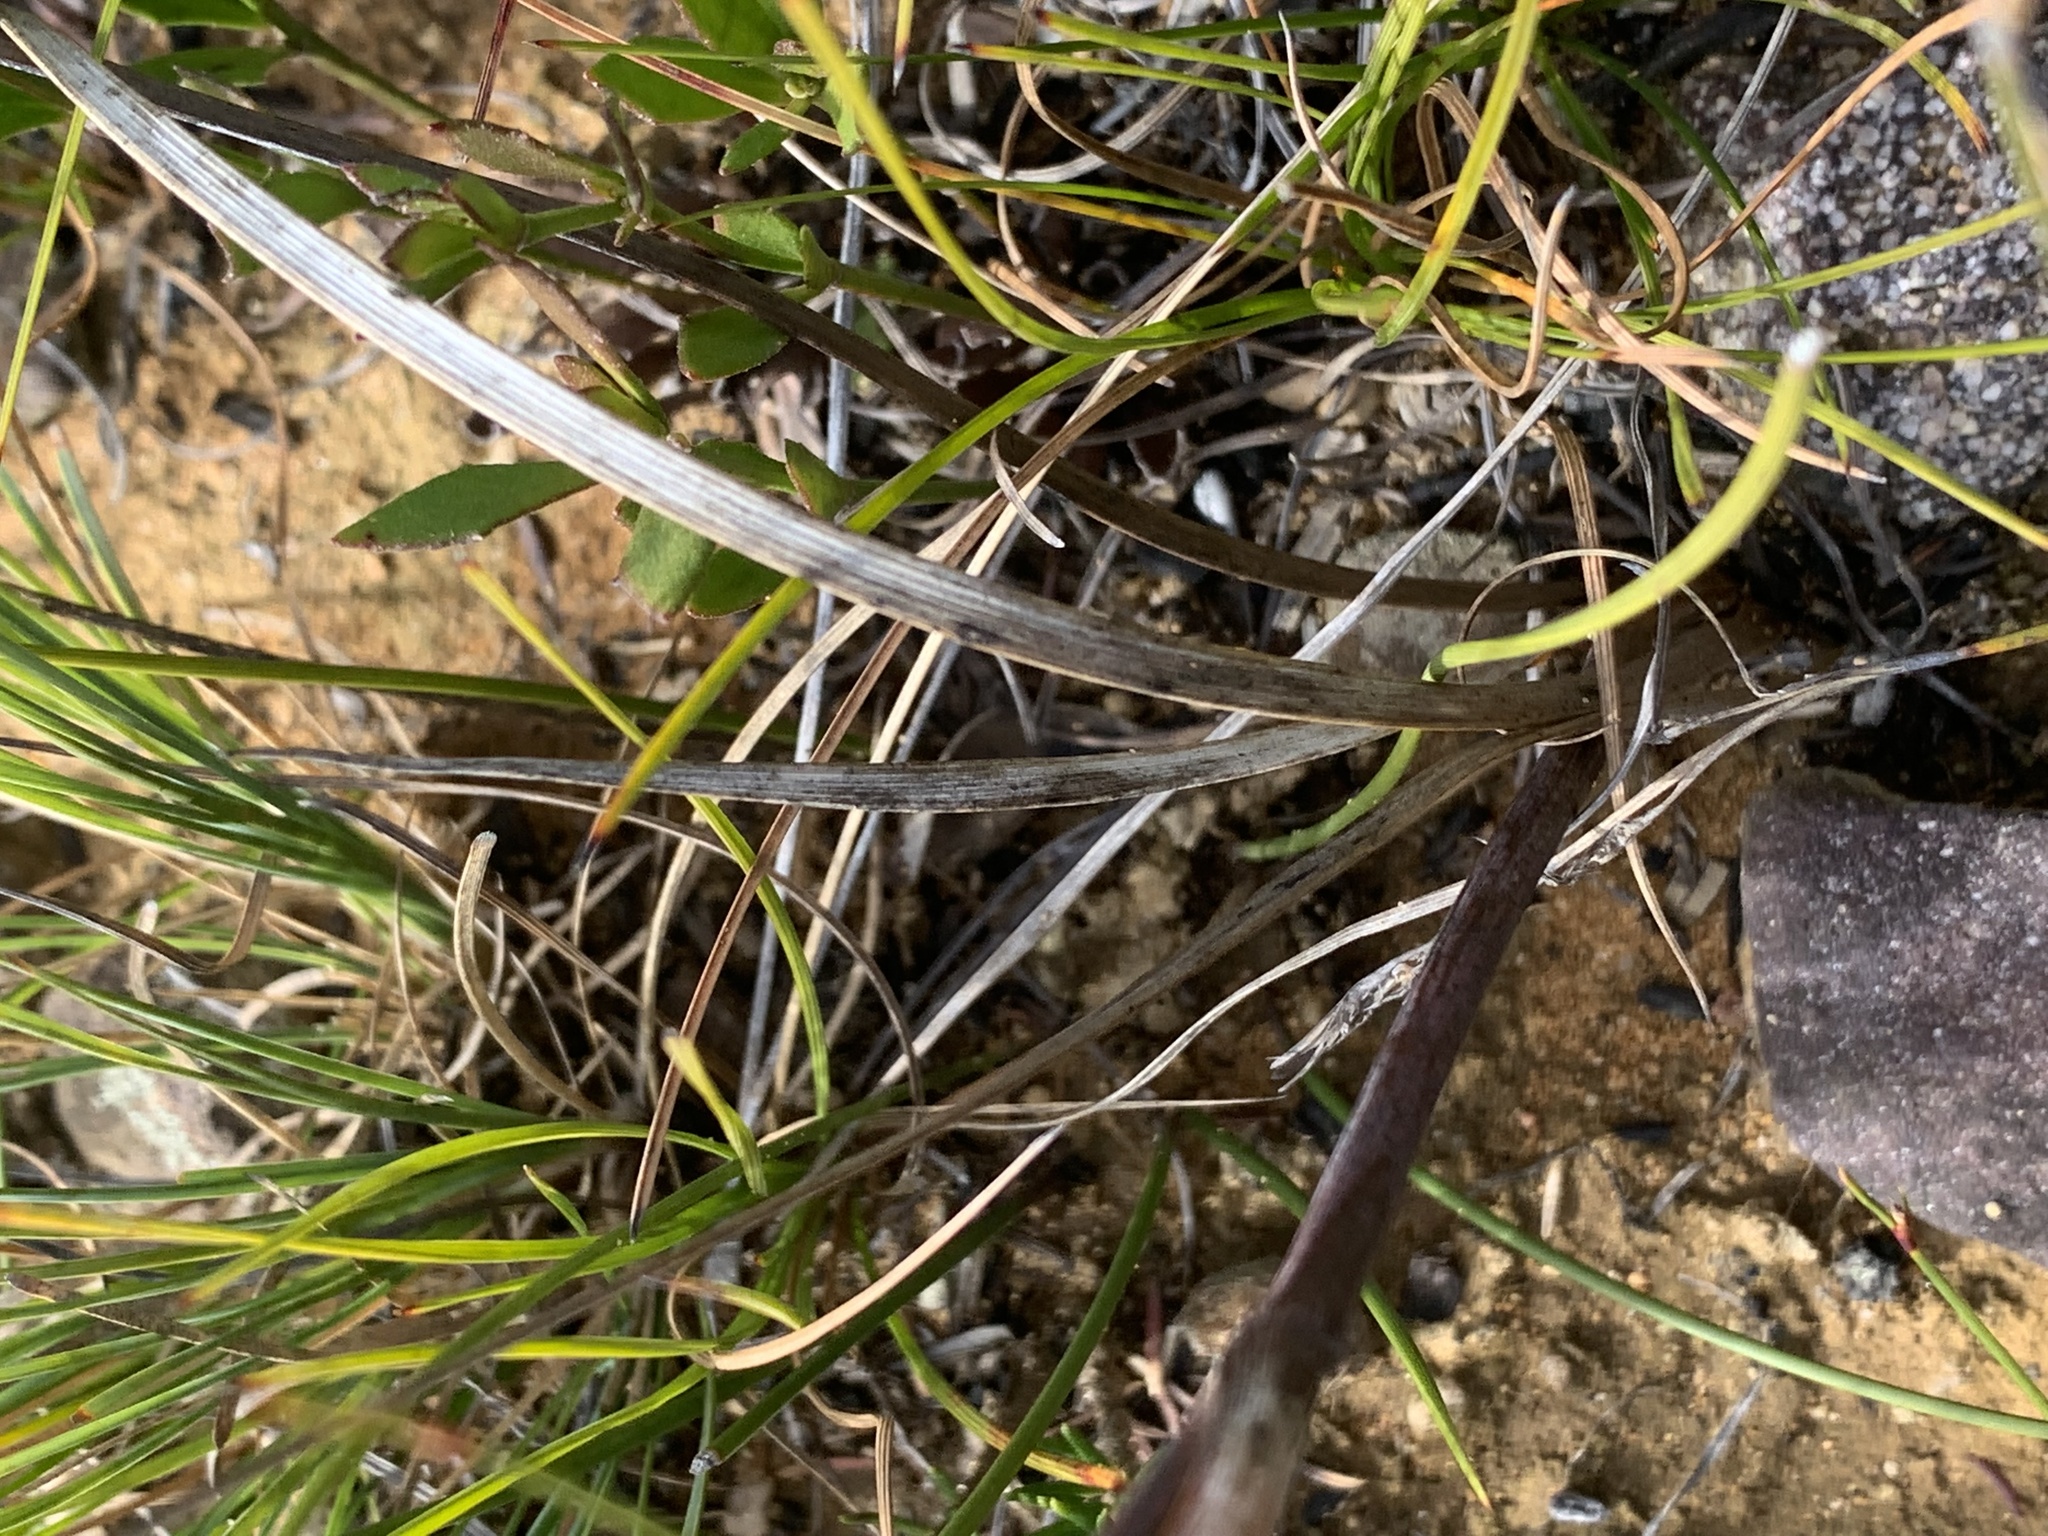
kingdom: Plantae
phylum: Tracheophyta
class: Liliopsida
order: Commelinales
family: Haemodoraceae
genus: Haemodorum
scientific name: Haemodorum planifolium
